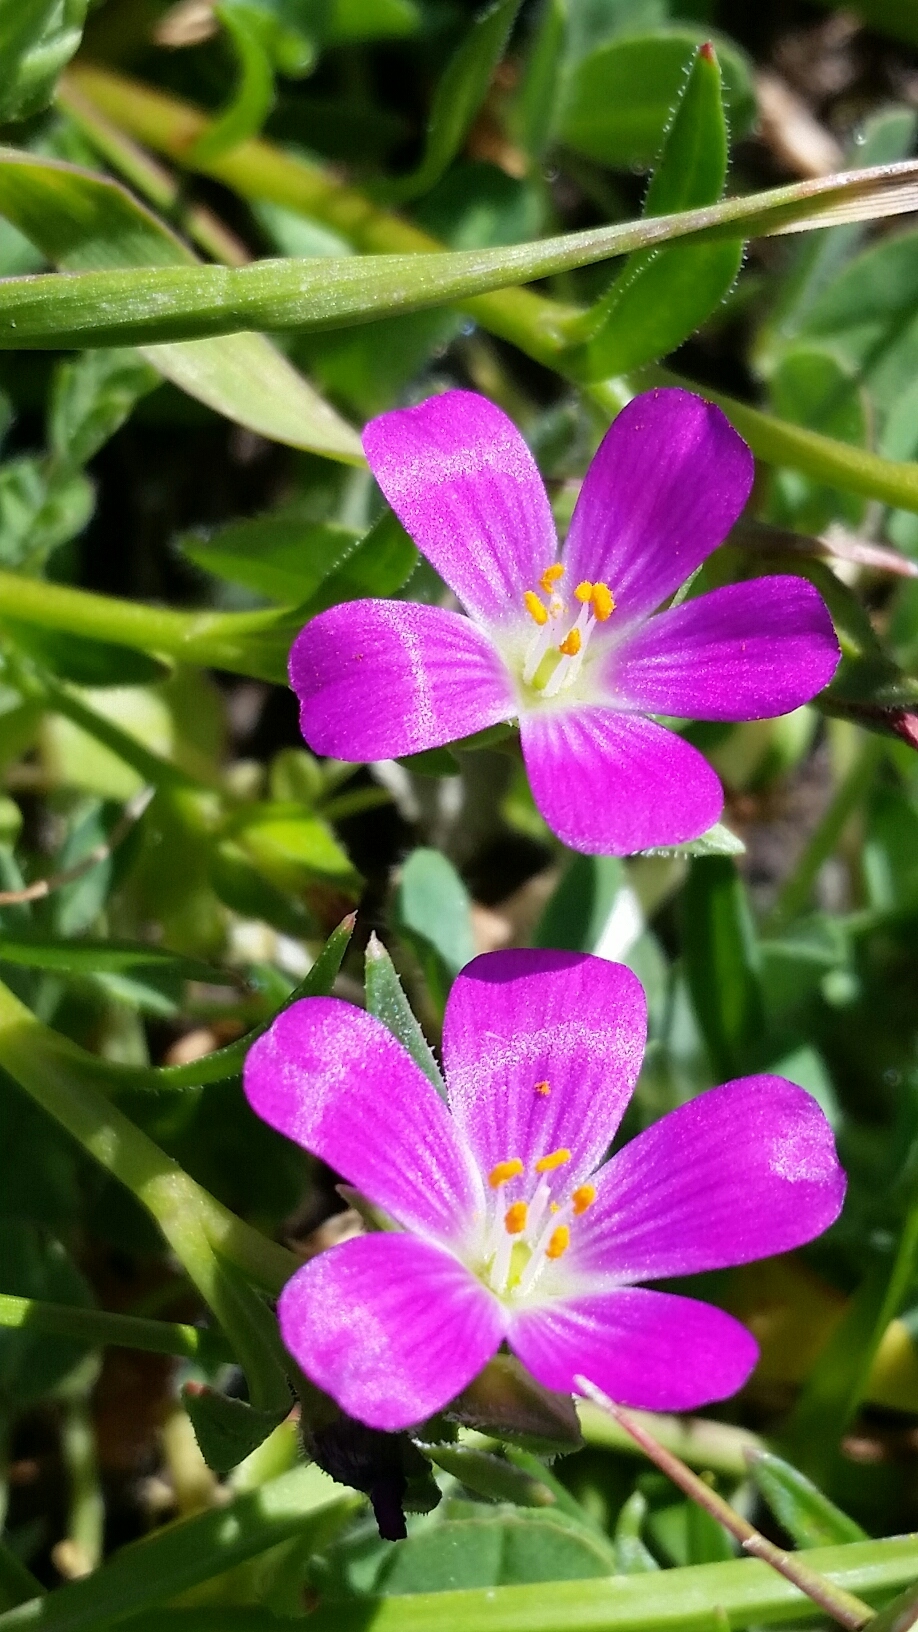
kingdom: Plantae
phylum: Tracheophyta
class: Magnoliopsida
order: Caryophyllales
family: Montiaceae
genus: Calandrinia
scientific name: Calandrinia menziesii
